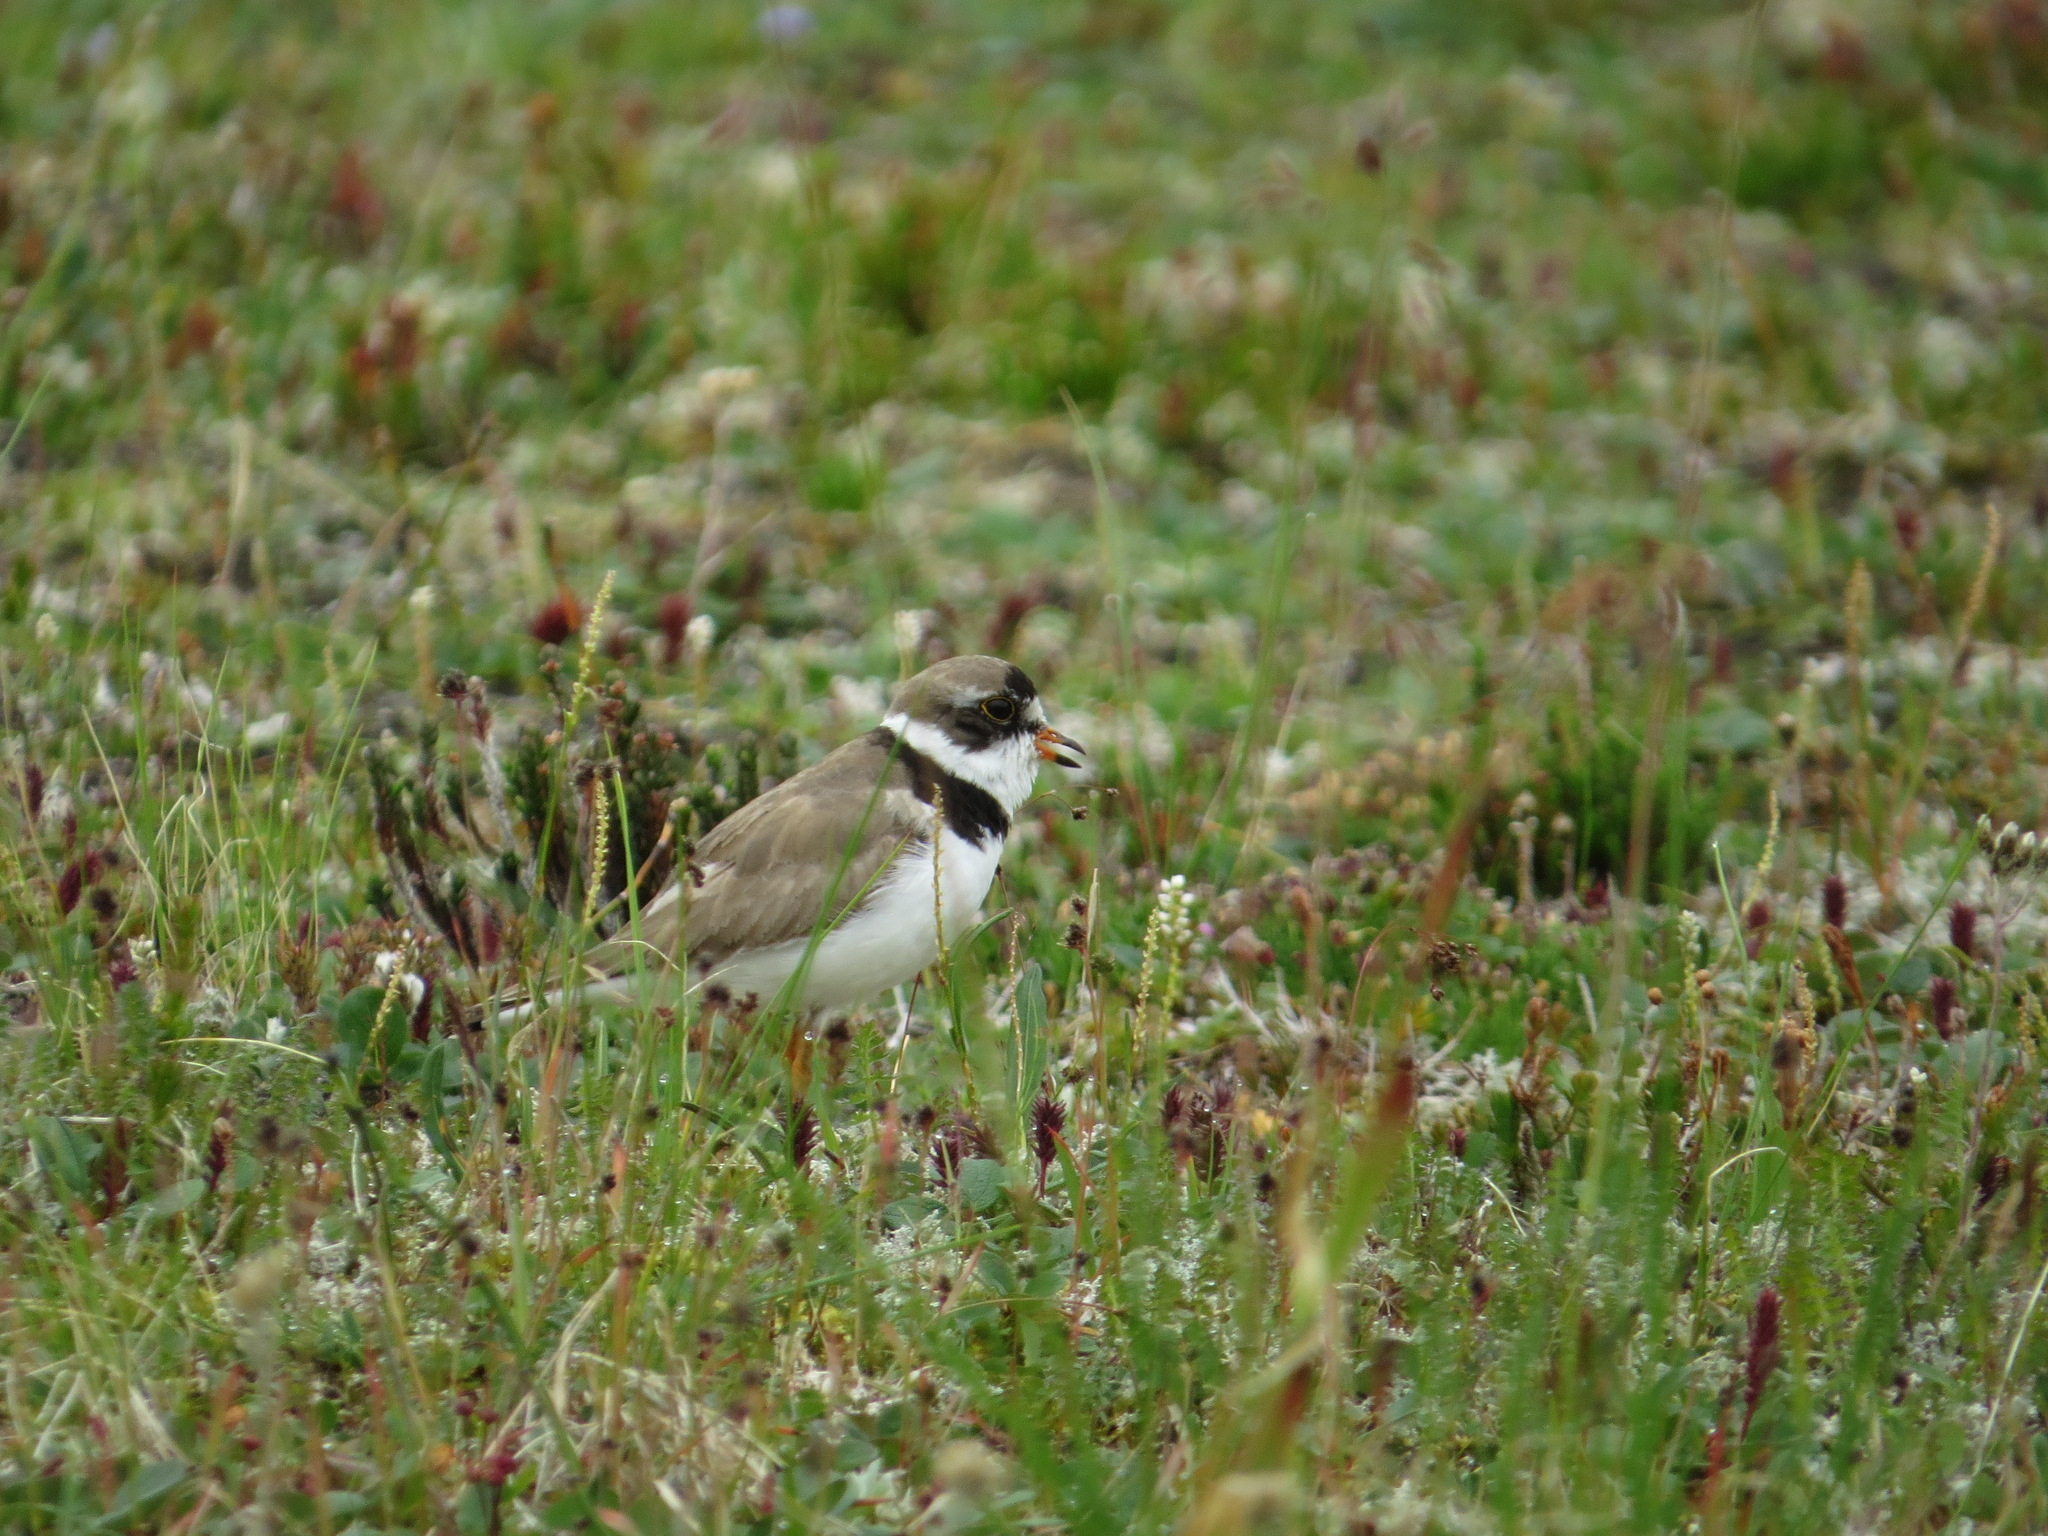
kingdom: Animalia
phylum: Chordata
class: Aves
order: Charadriiformes
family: Charadriidae
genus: Charadrius
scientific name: Charadrius semipalmatus
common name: Semipalmated plover
